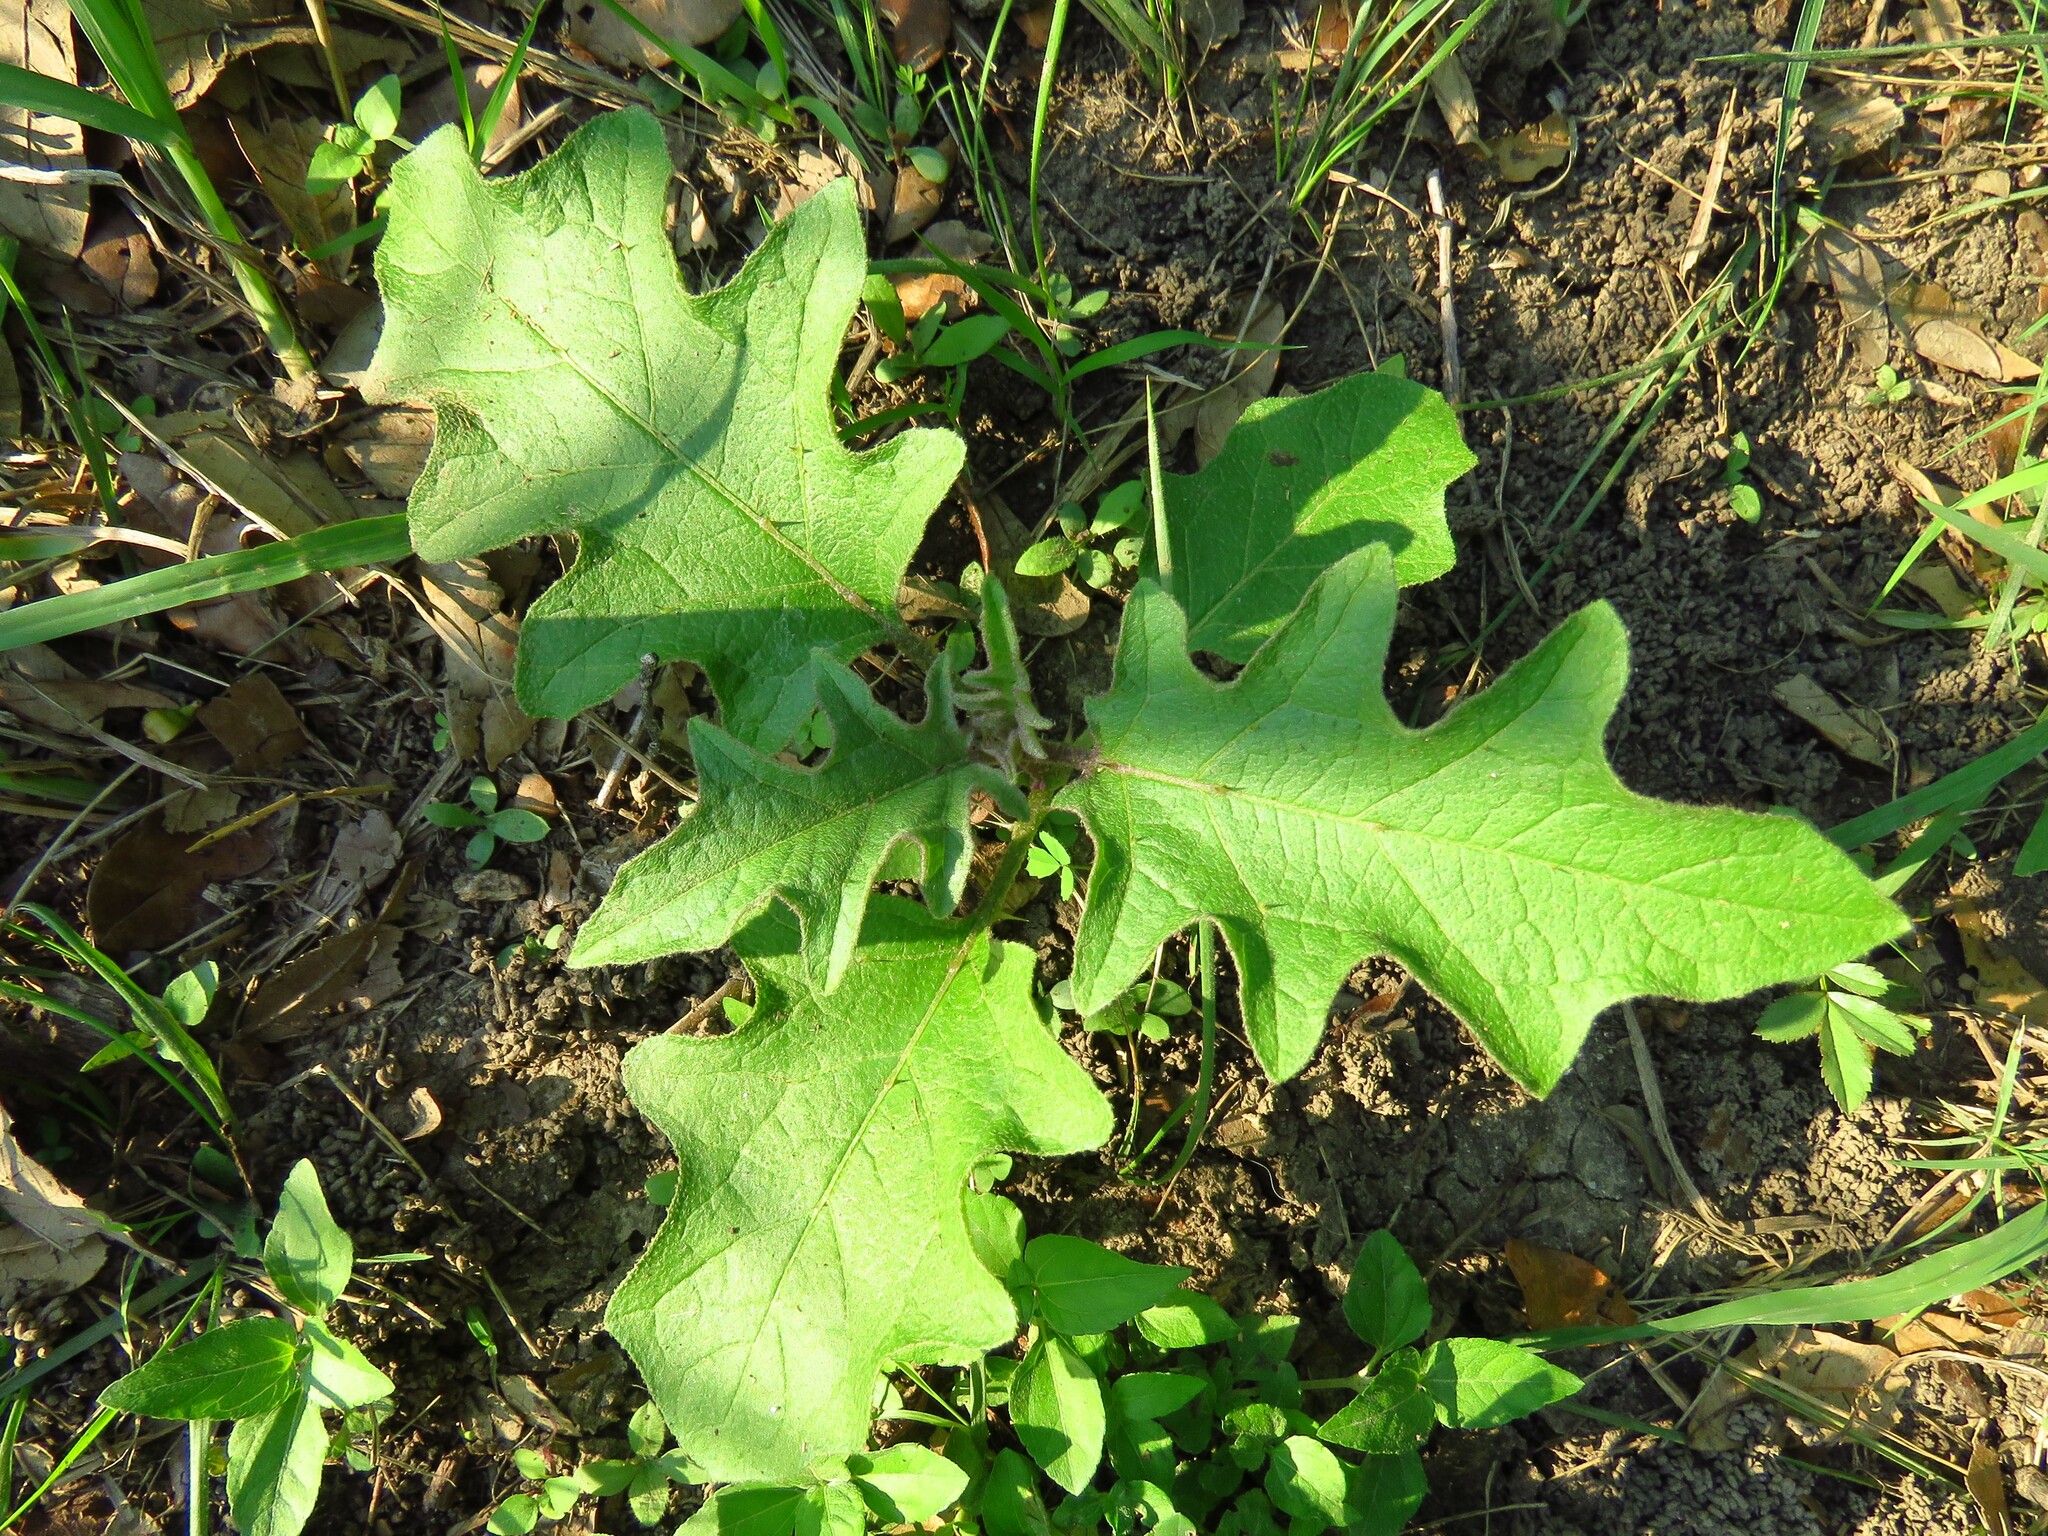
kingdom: Plantae
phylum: Tracheophyta
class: Magnoliopsida
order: Solanales
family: Solanaceae
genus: Solanum
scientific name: Solanum dimidiatum
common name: Carolina horse-nettle
